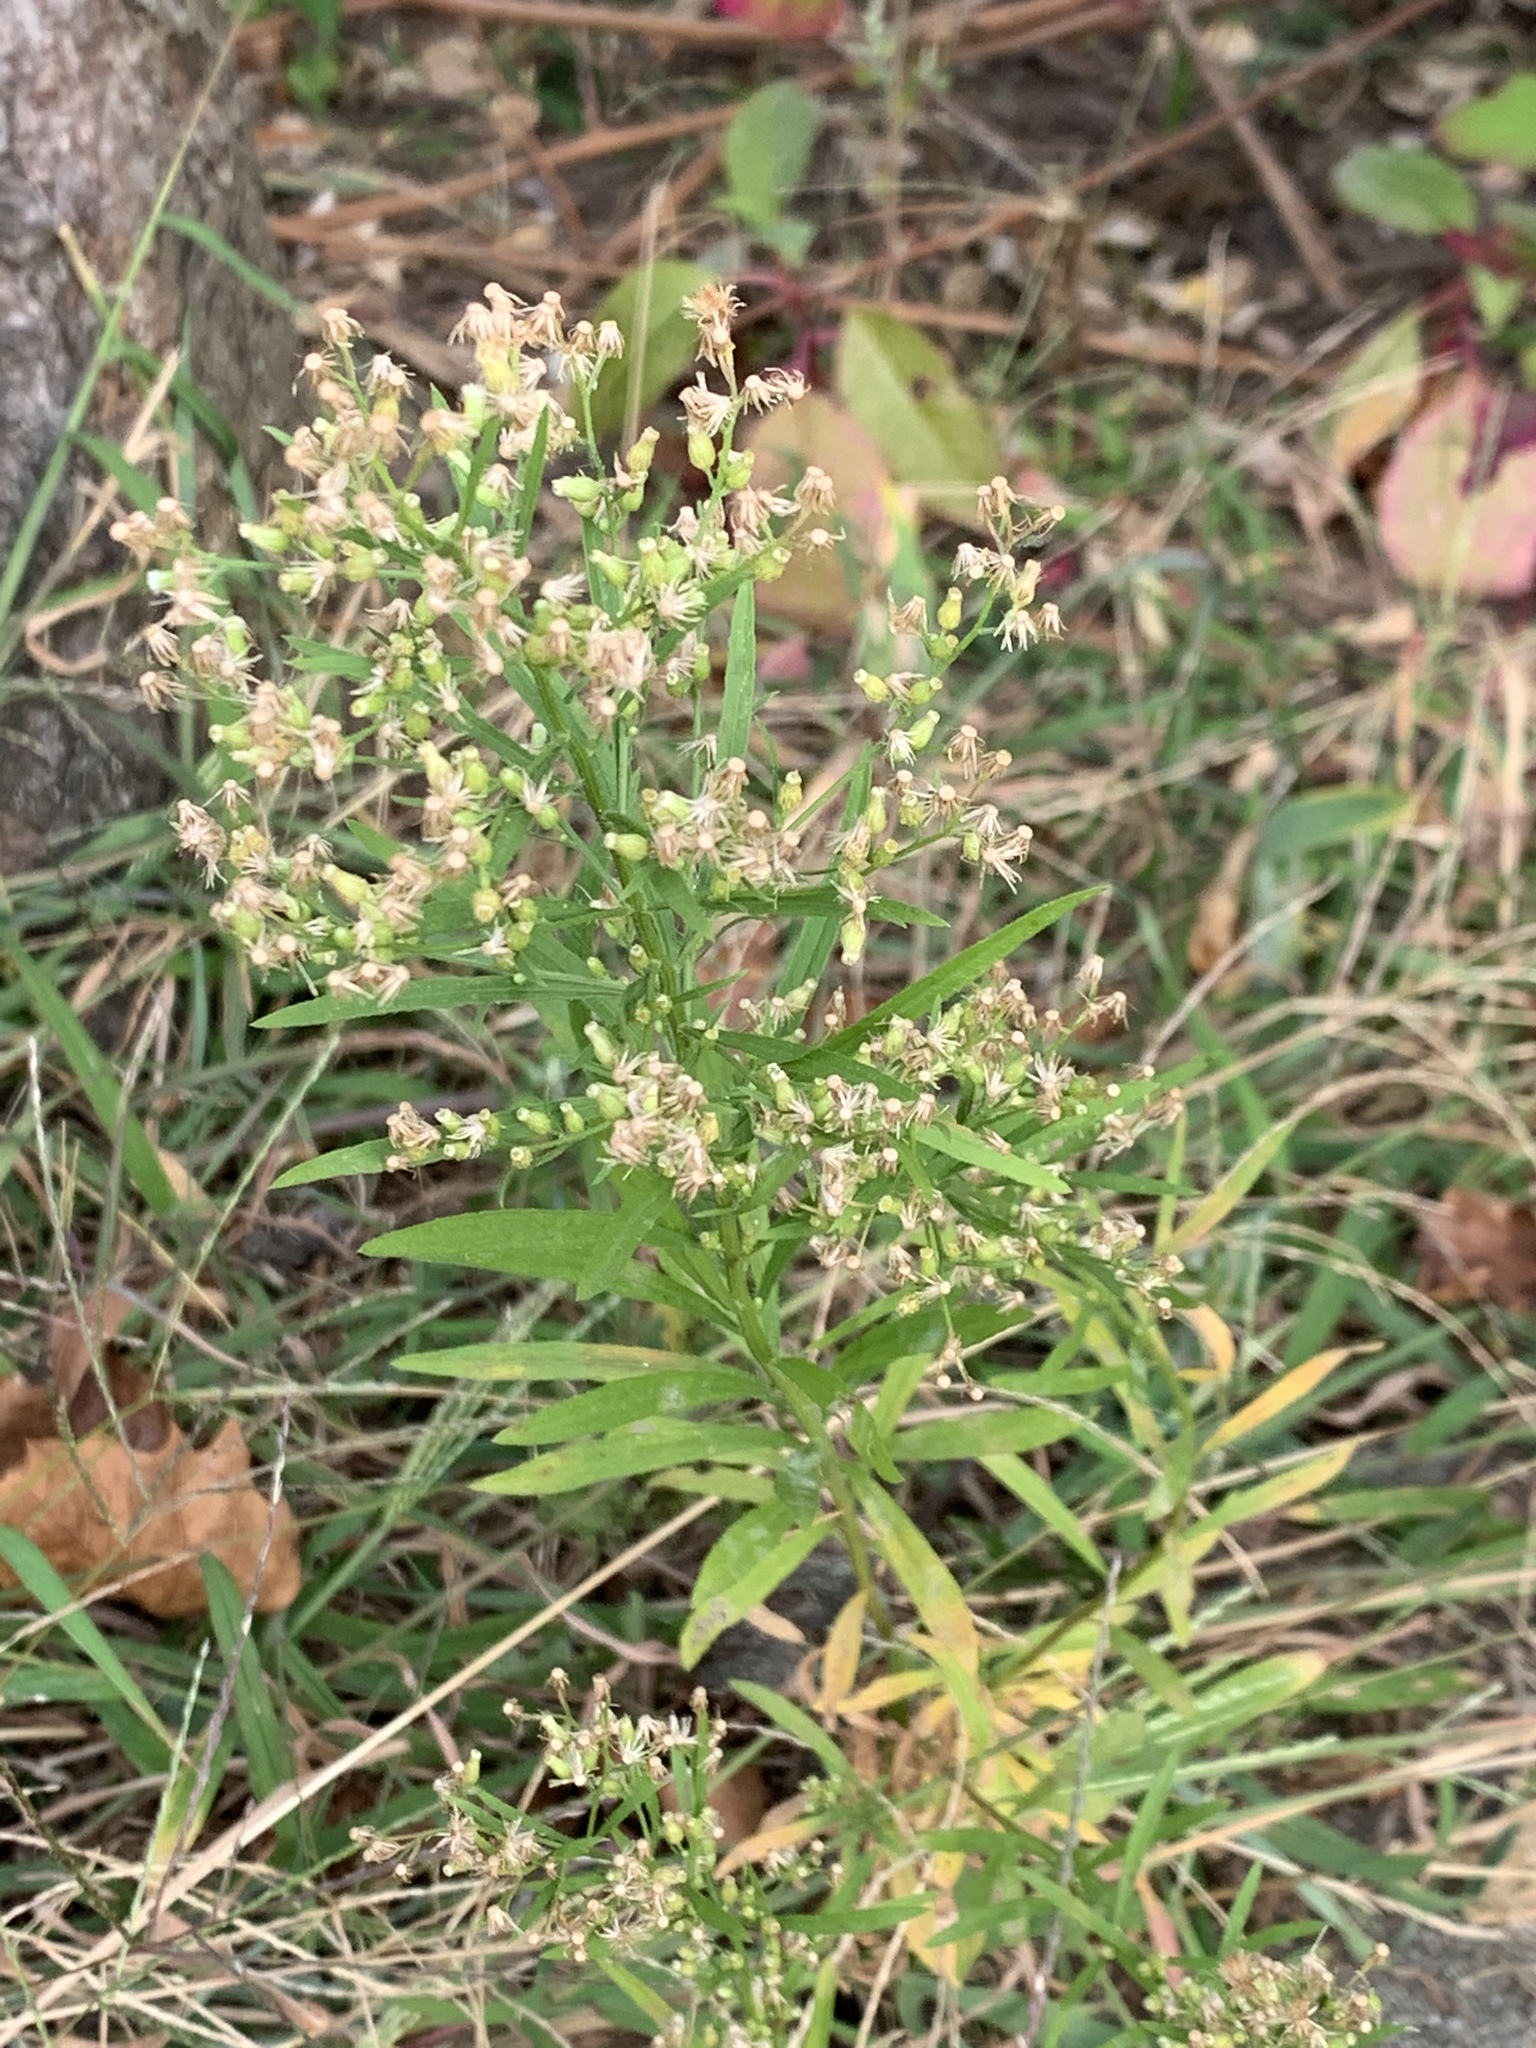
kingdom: Plantae
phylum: Tracheophyta
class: Magnoliopsida
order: Asterales
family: Asteraceae
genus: Erigeron
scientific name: Erigeron canadensis
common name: Canadian fleabane
